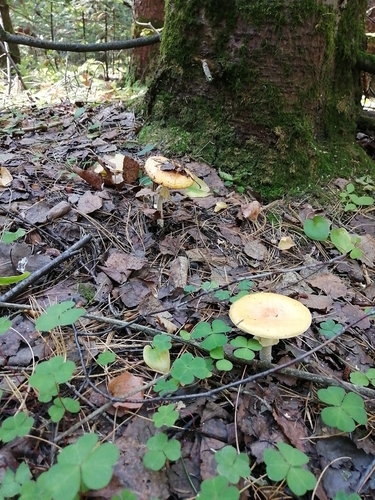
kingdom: Fungi
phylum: Basidiomycota
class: Agaricomycetes
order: Agaricales
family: Amanitaceae
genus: Amanita
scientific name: Amanita muscaria
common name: Fly agaric
